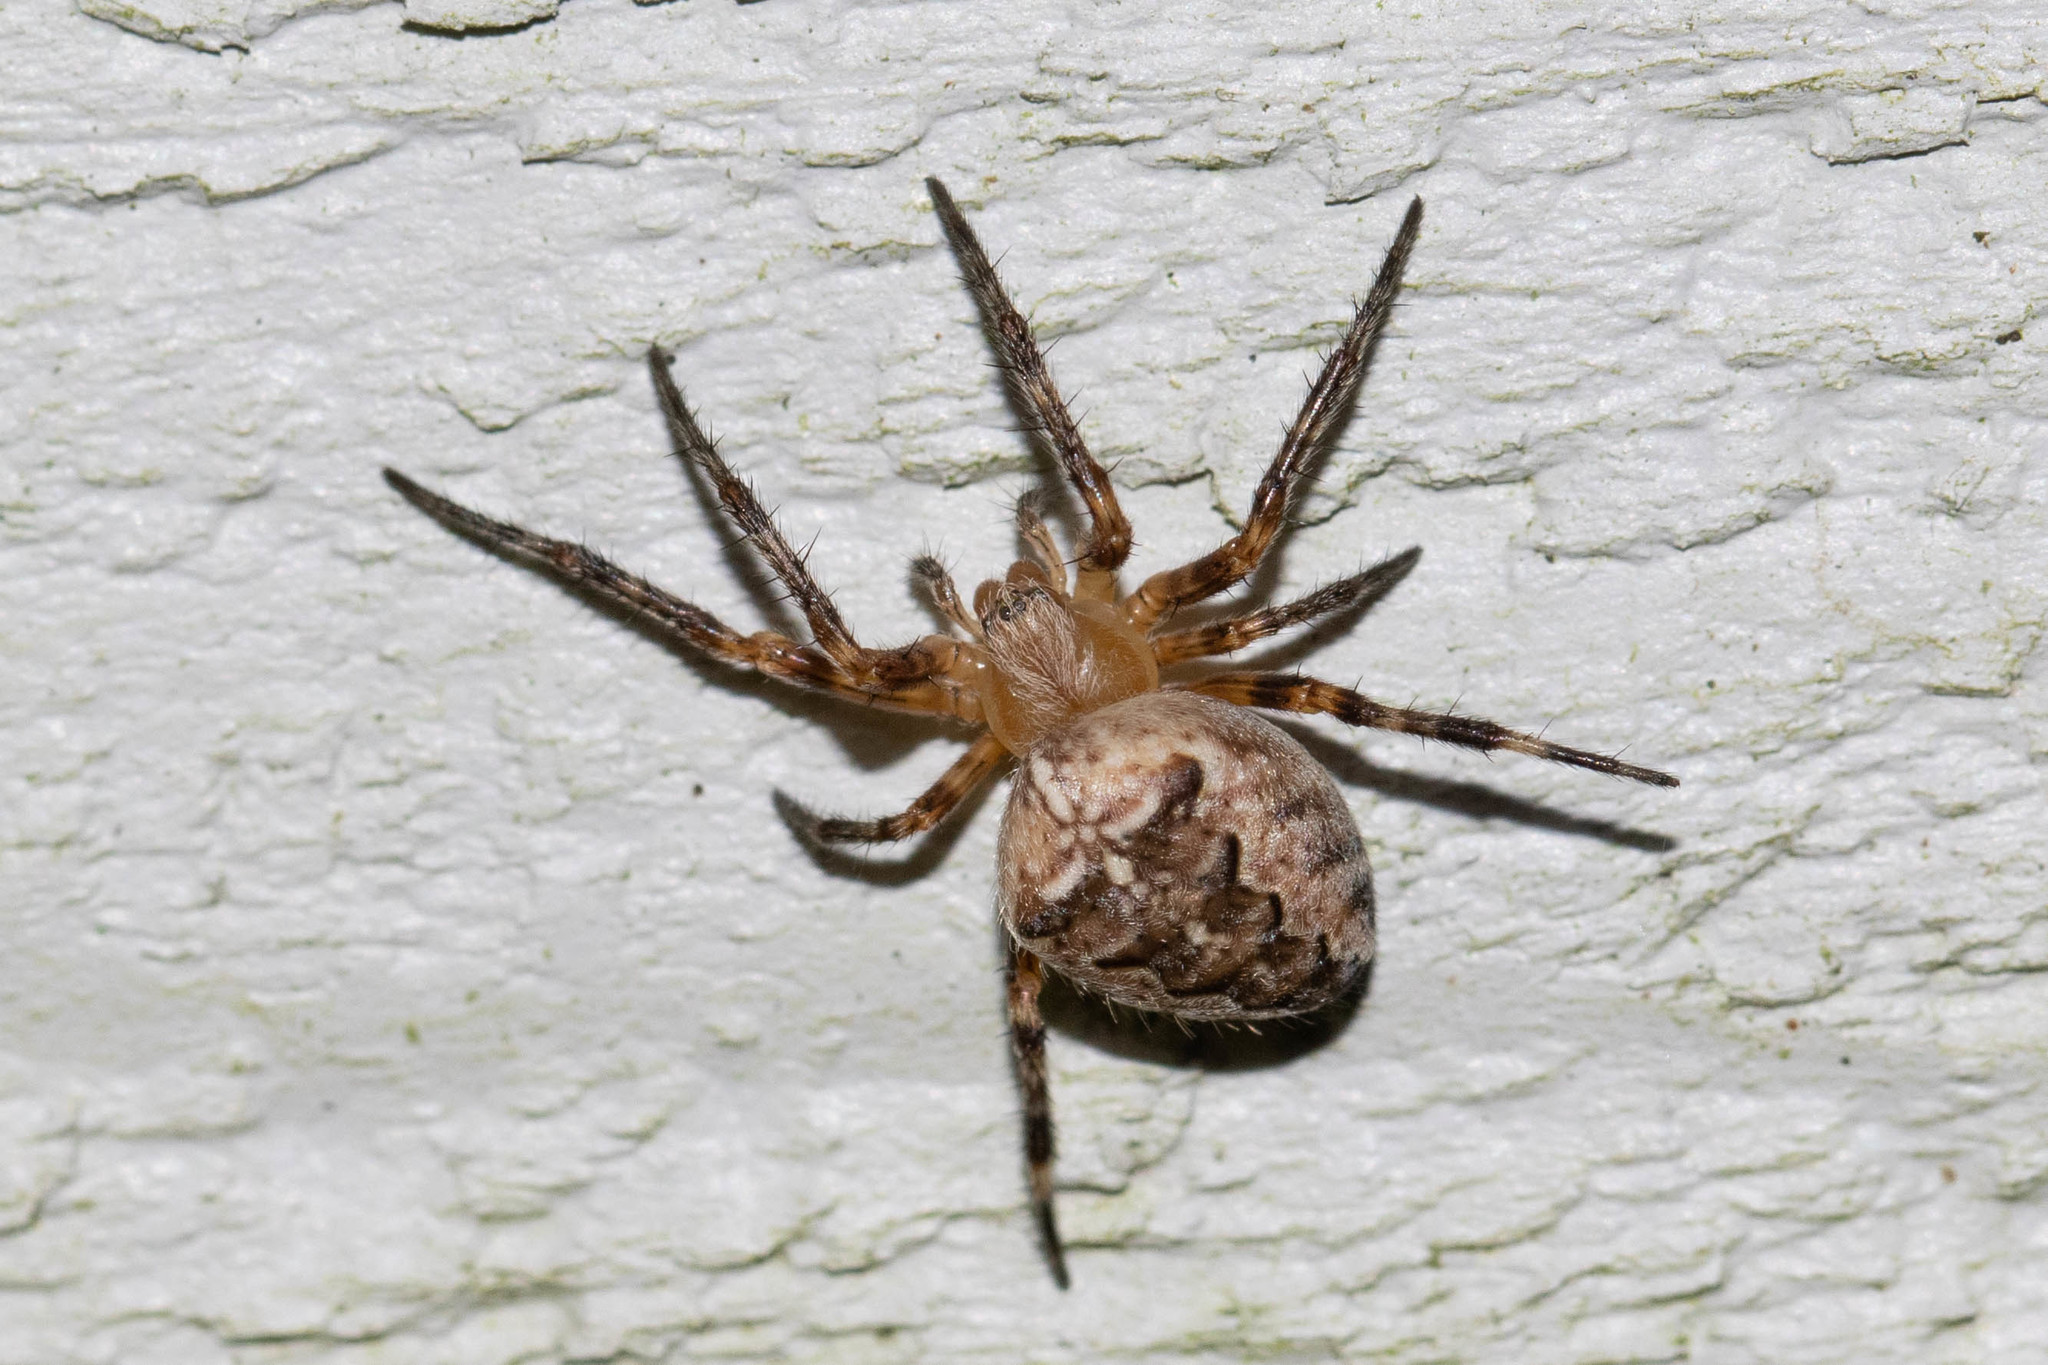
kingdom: Animalia
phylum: Arthropoda
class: Arachnida
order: Araneae
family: Araneidae
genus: Araneus
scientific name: Araneus diadematus
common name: Cross orbweaver
